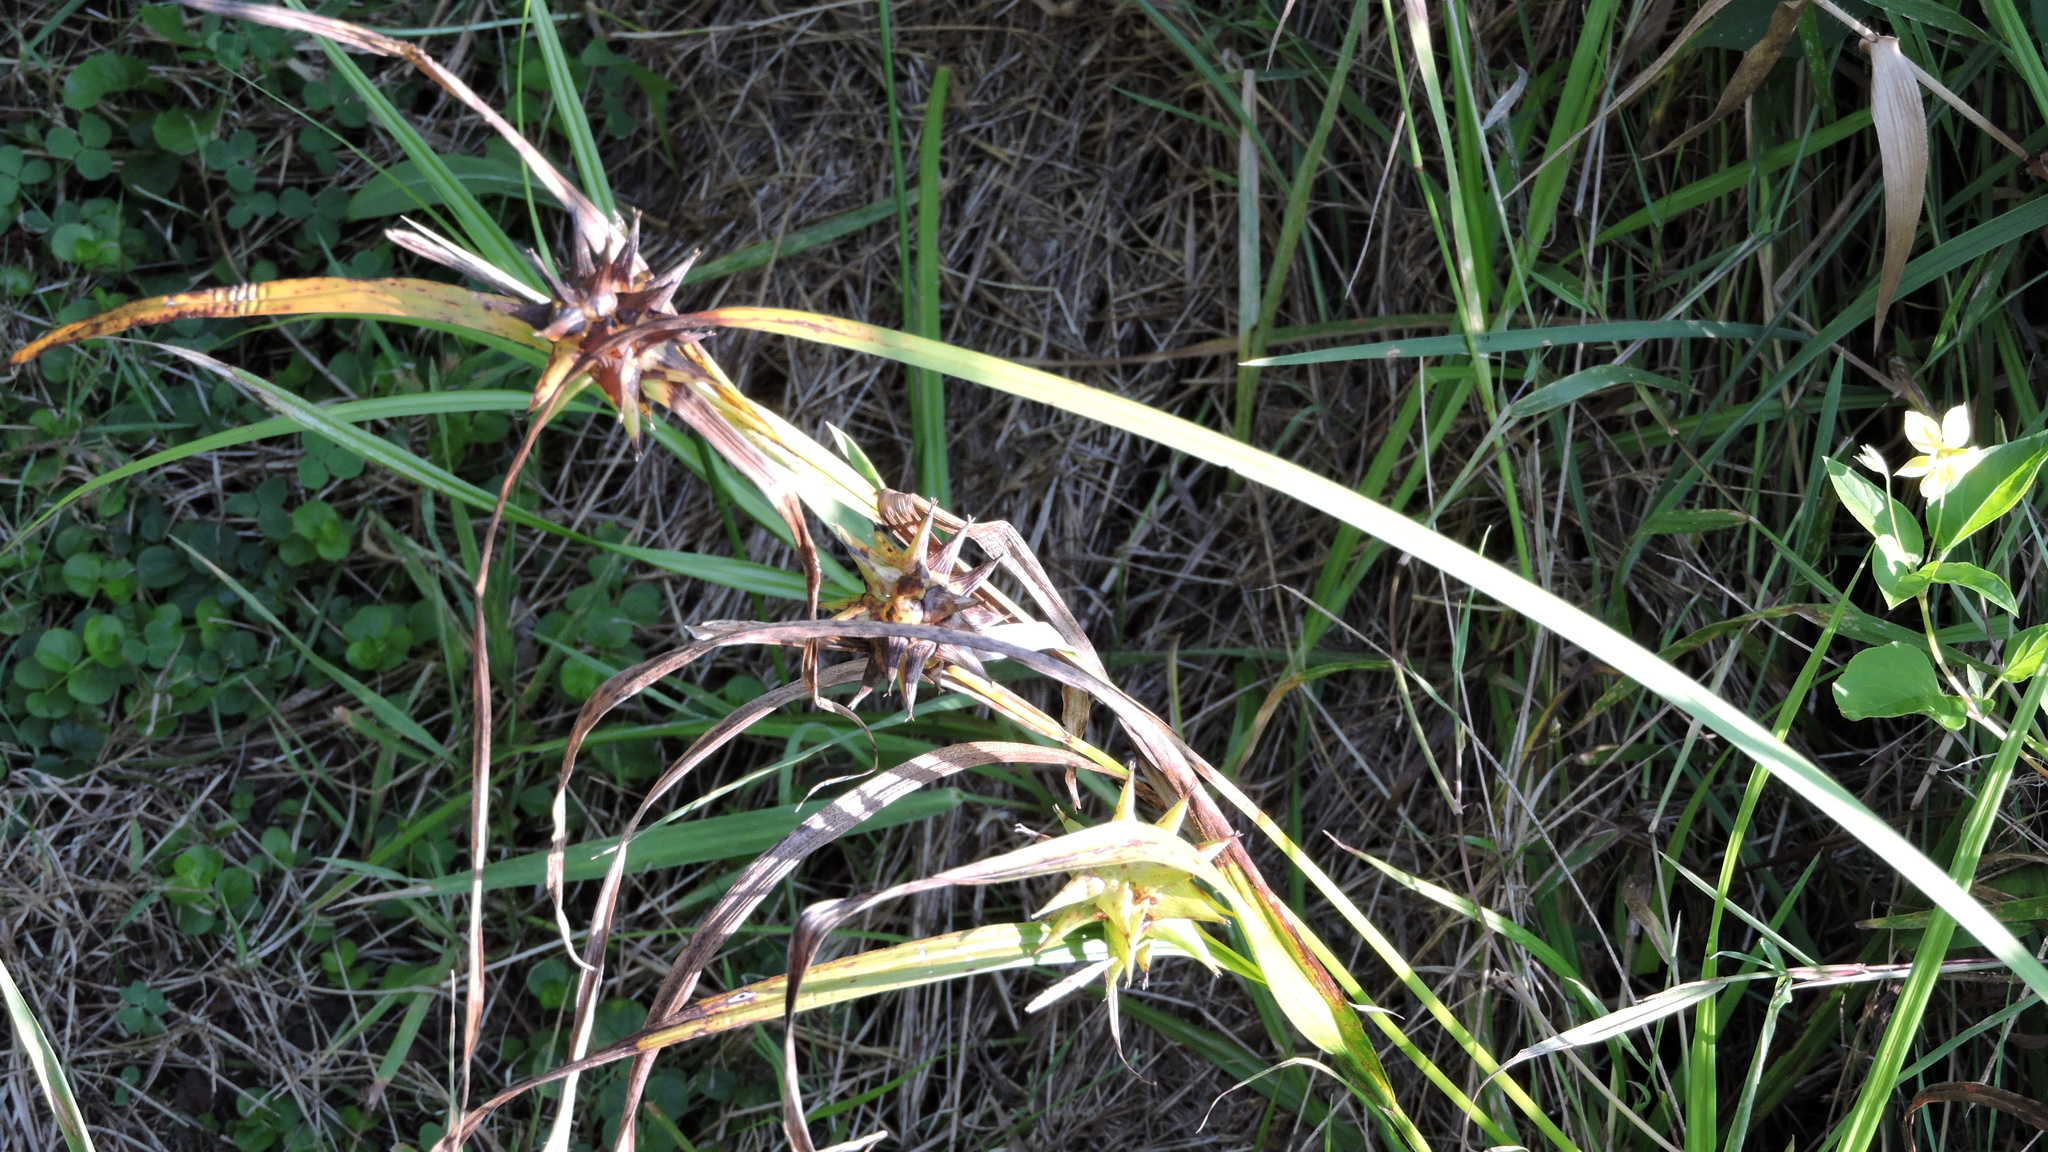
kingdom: Plantae
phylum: Tracheophyta
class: Liliopsida
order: Poales
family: Cyperaceae
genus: Carex
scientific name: Carex grayi
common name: Asa gray's sedge
